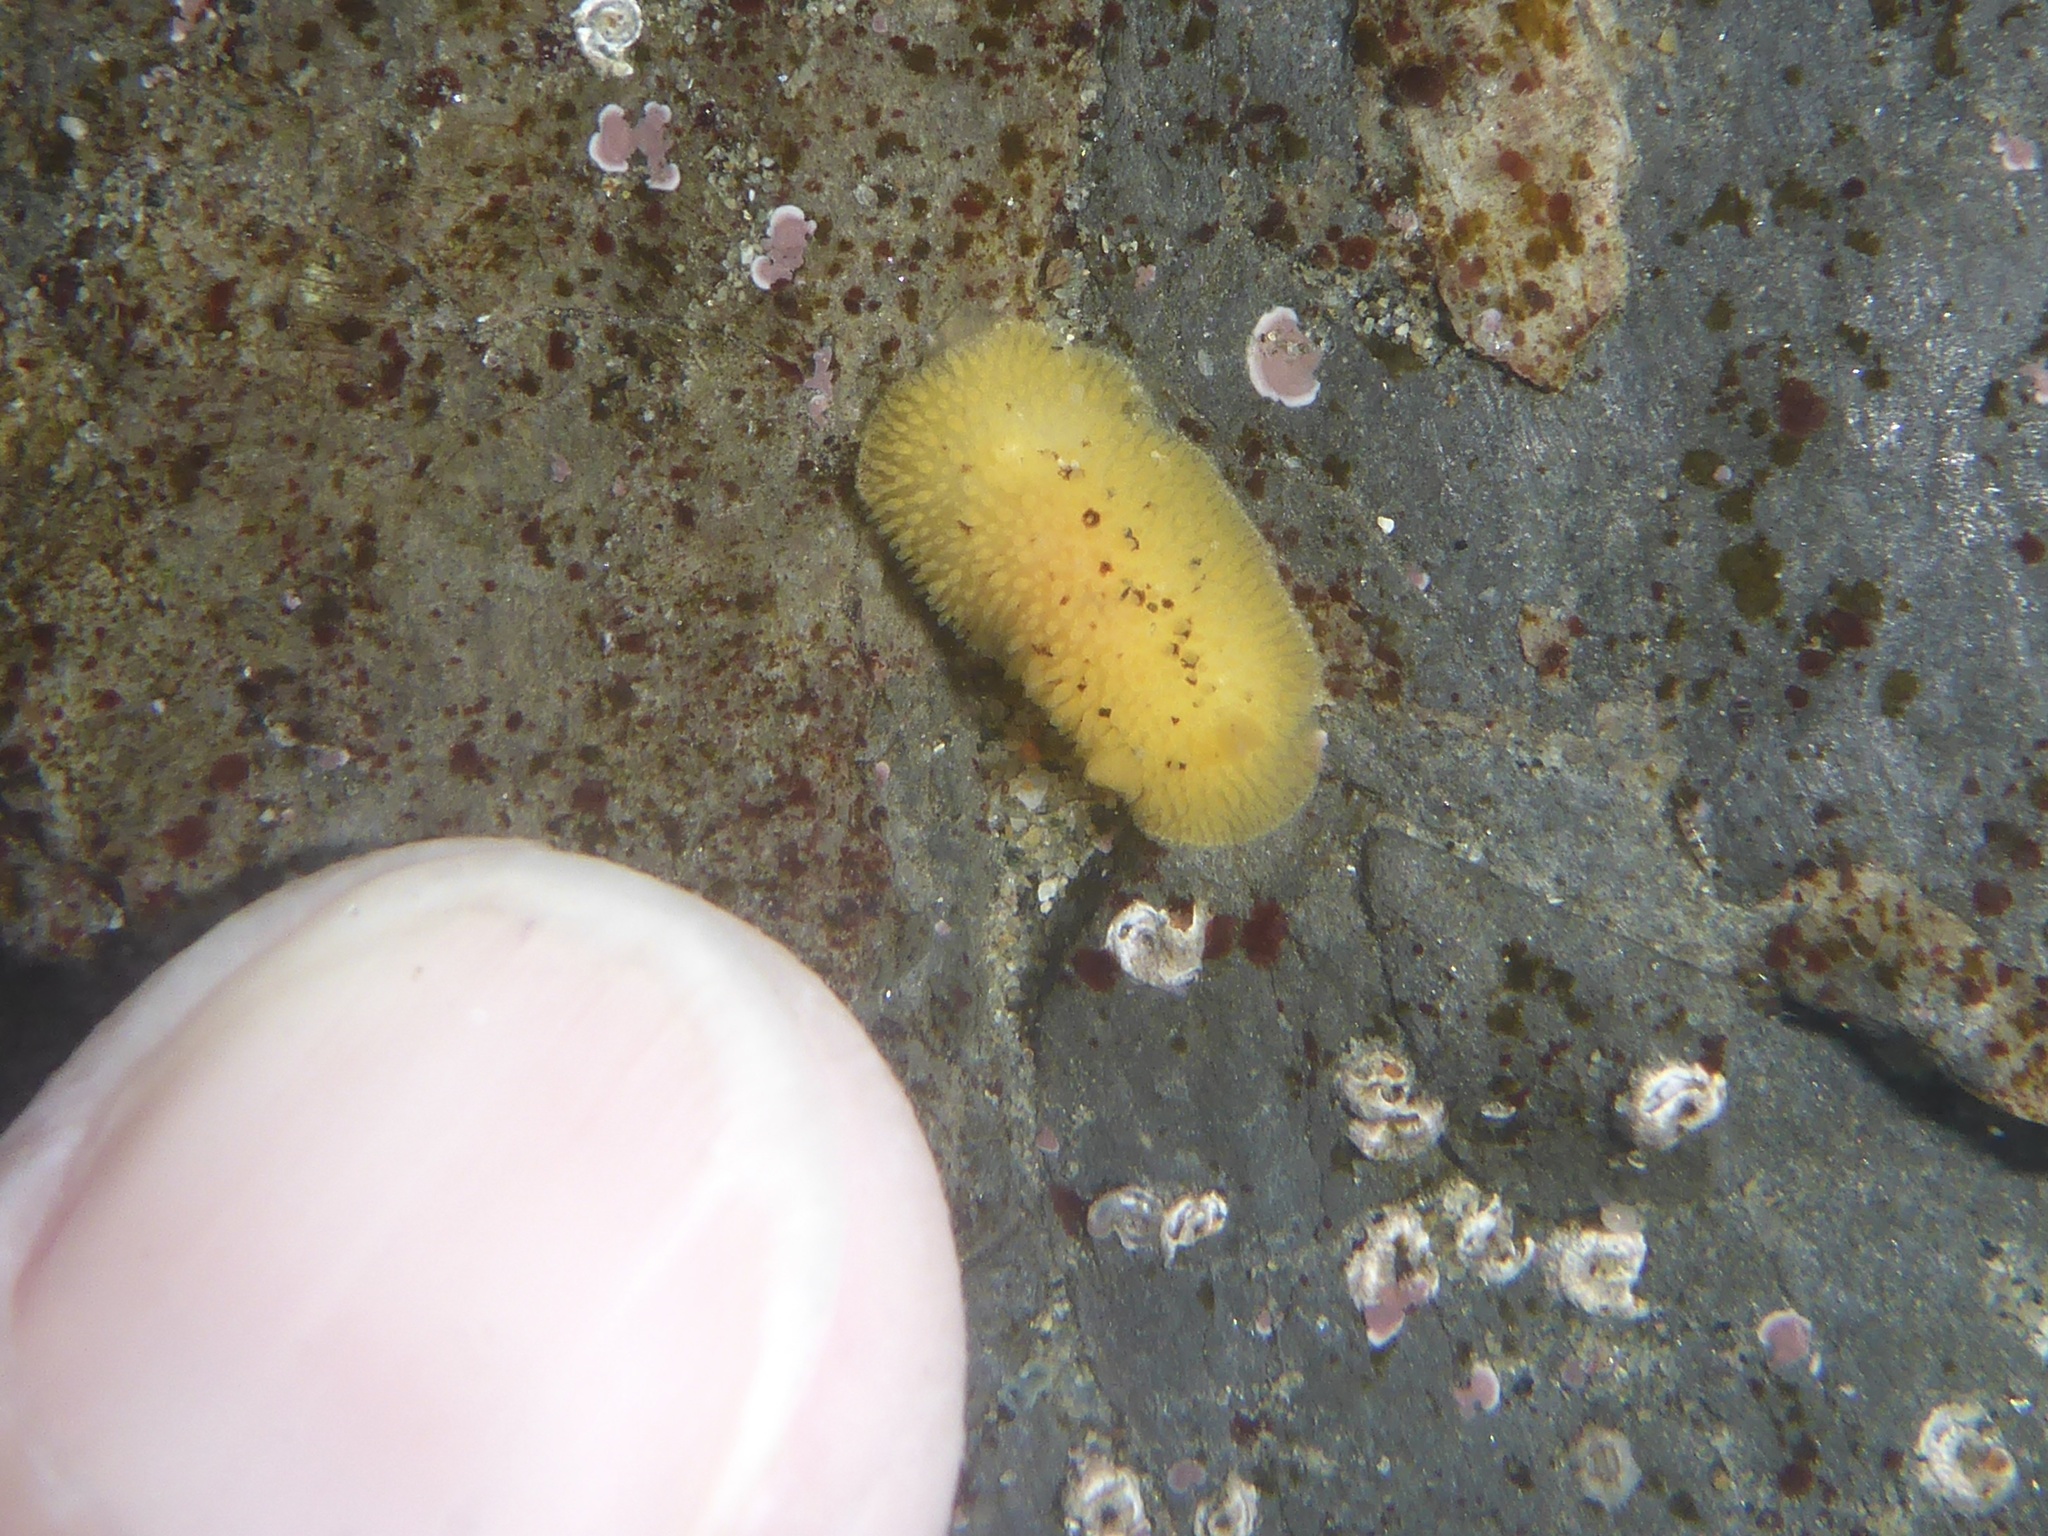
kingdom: Animalia
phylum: Mollusca
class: Gastropoda
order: Nudibranchia
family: Dorididae
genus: Doris
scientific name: Doris montereyensis
